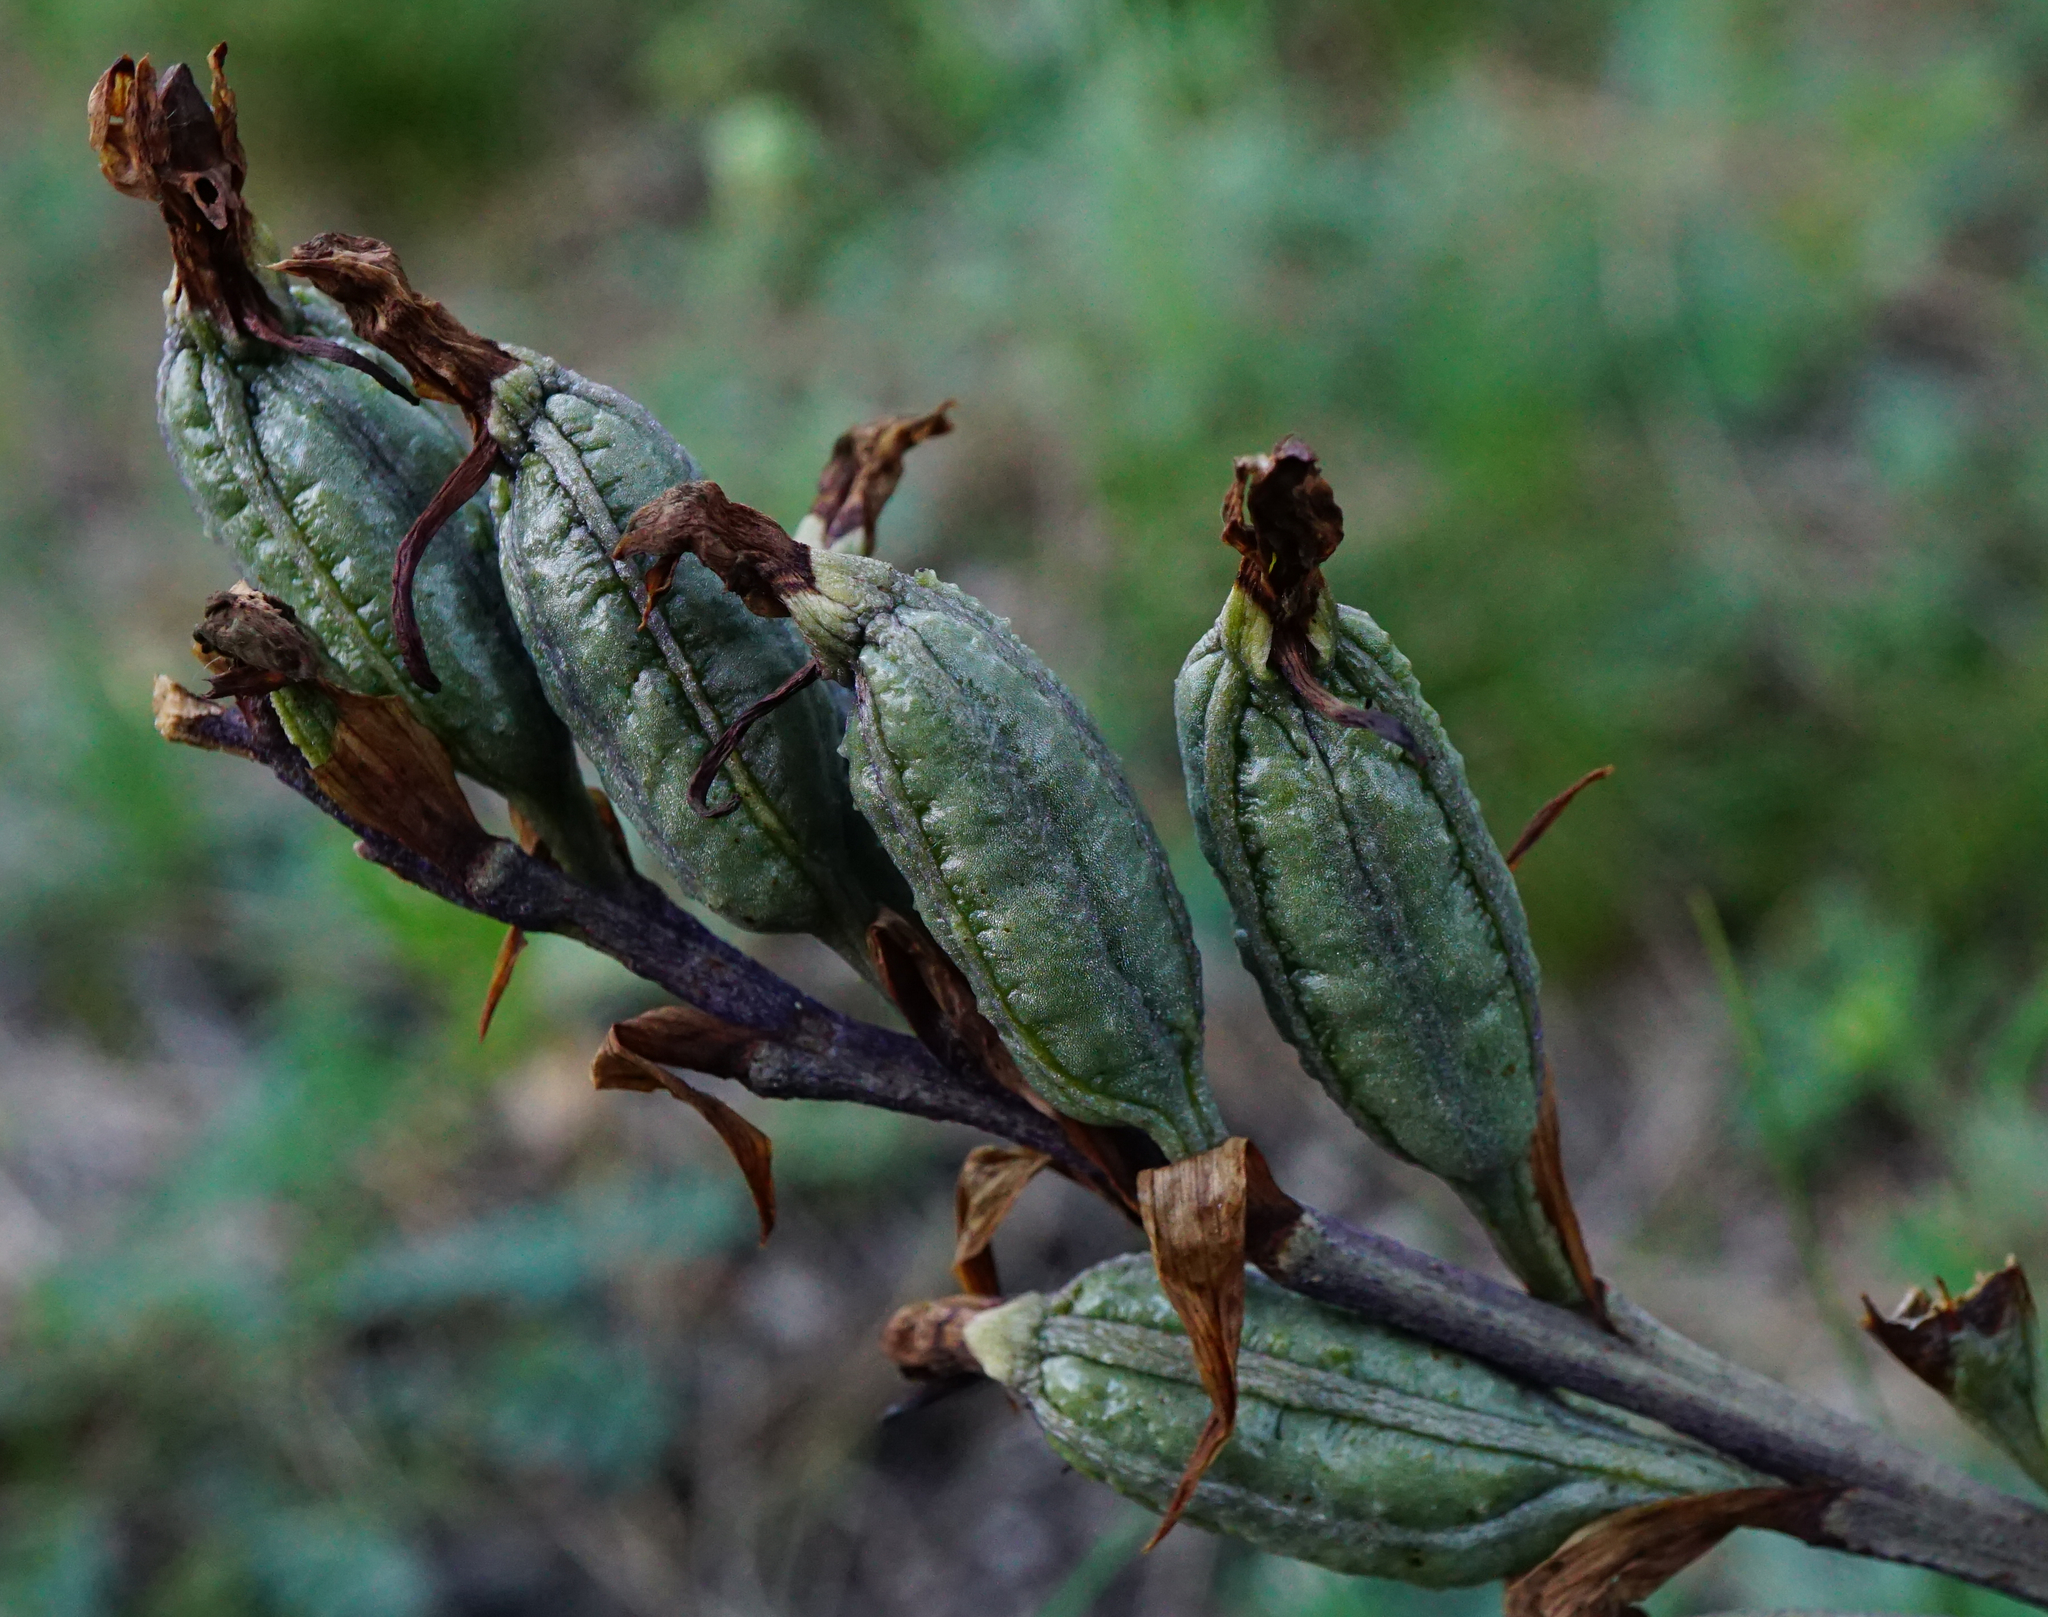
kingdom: Plantae
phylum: Tracheophyta
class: Liliopsida
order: Asparagales
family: Orchidaceae
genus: Limodorum
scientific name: Limodorum abortivum
